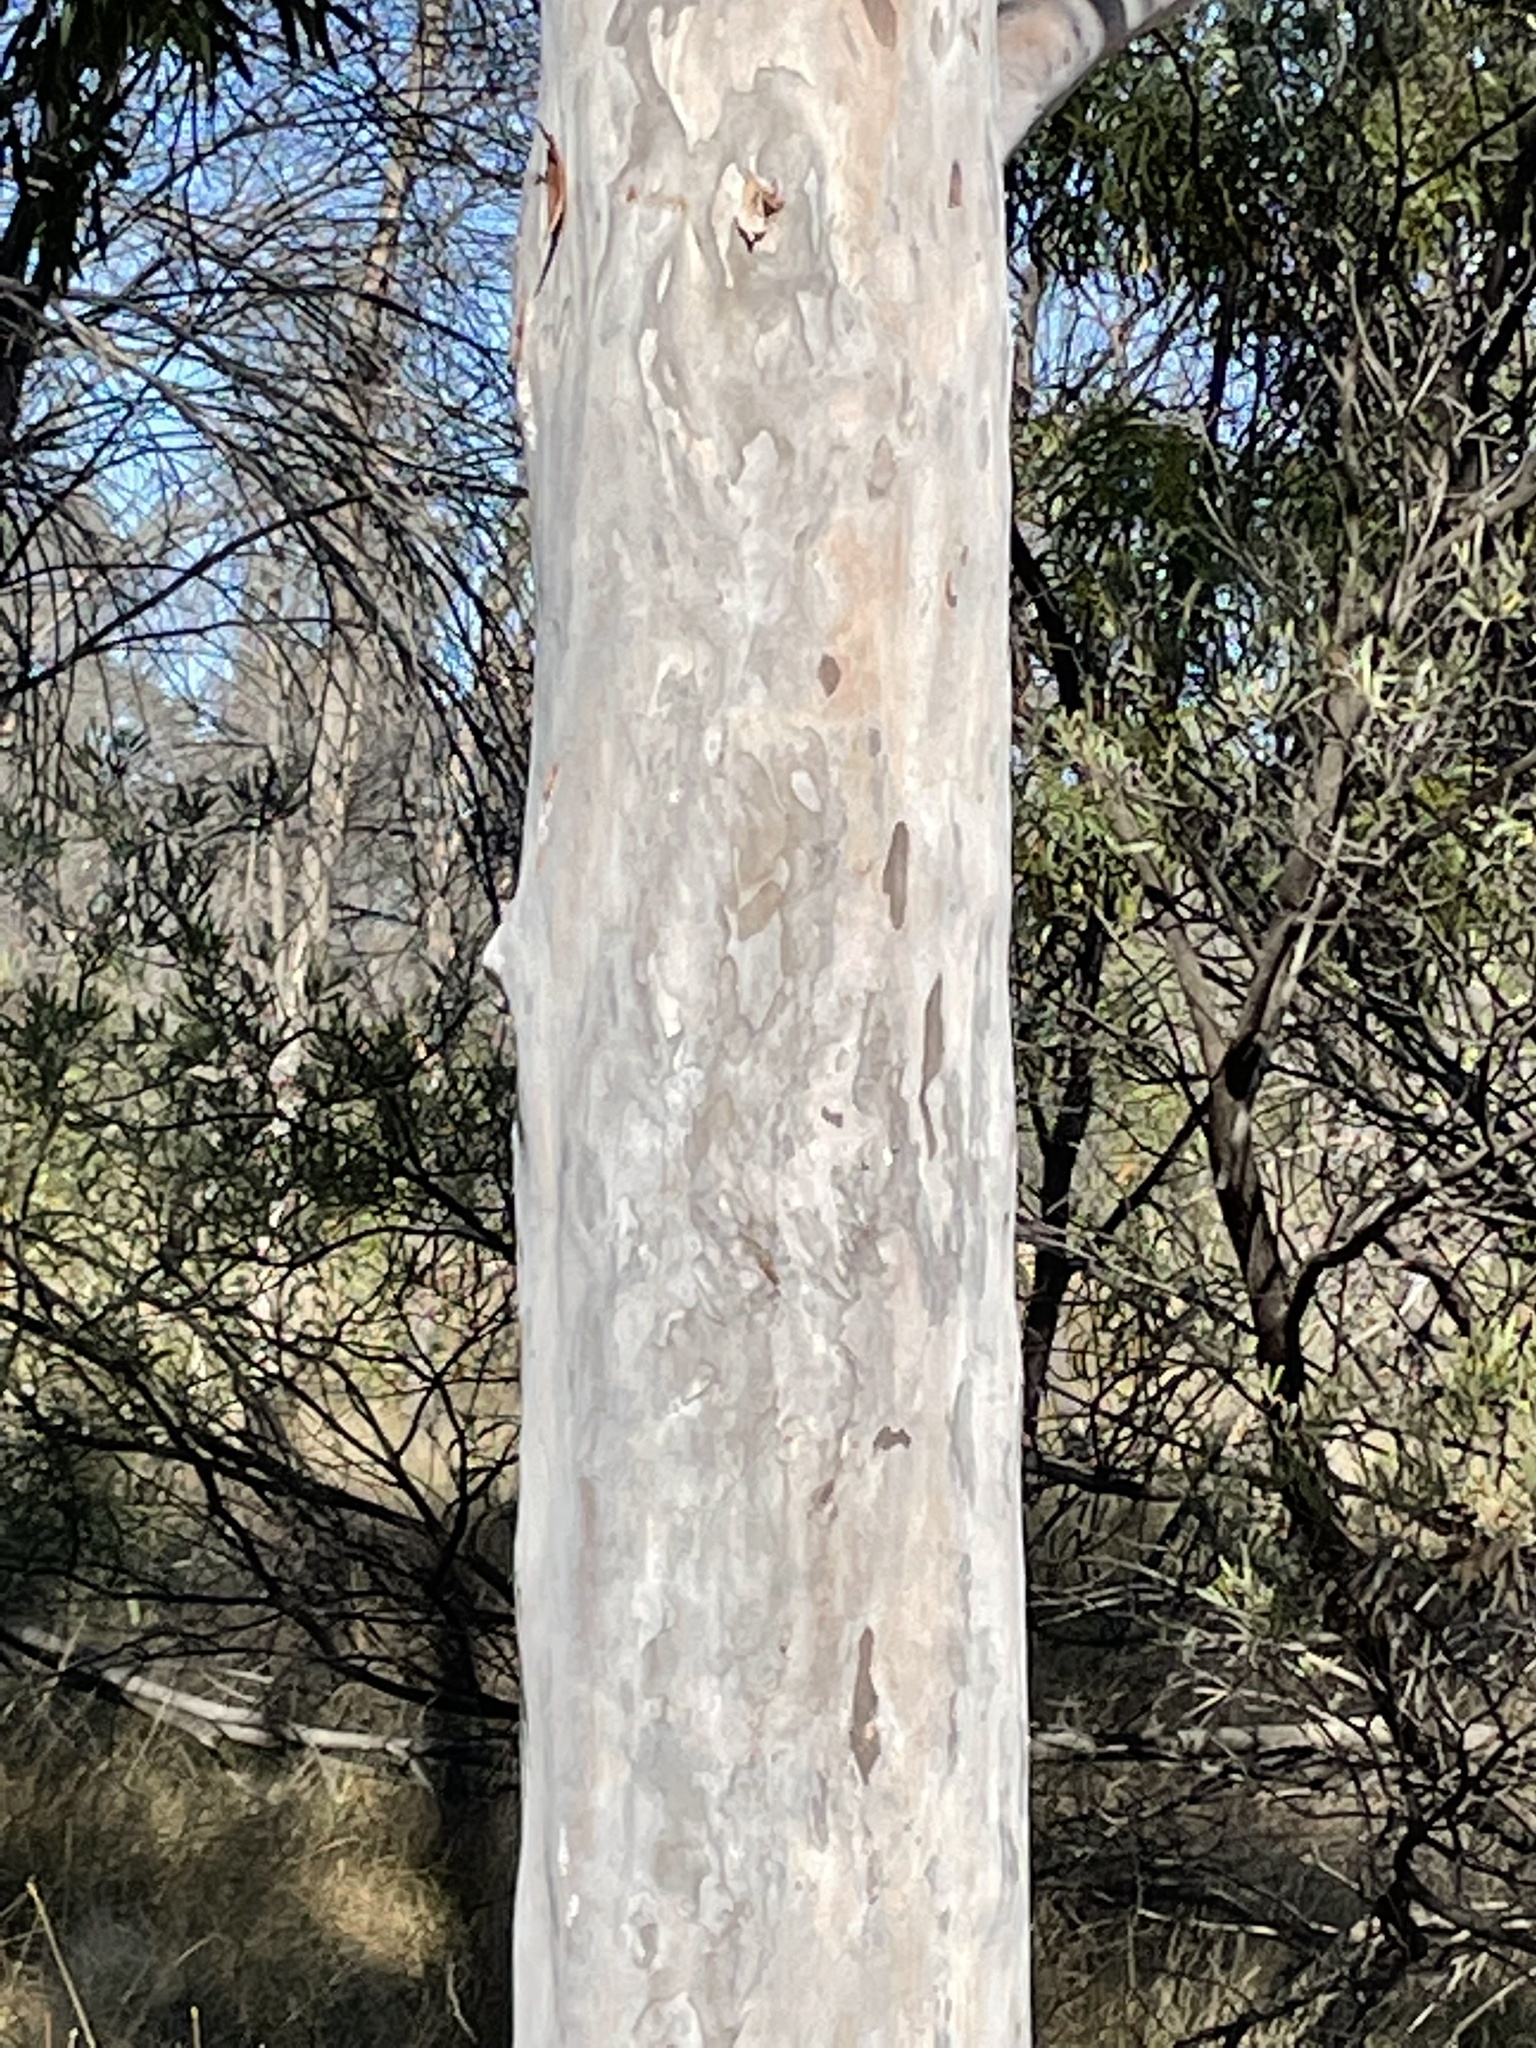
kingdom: Plantae
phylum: Tracheophyta
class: Magnoliopsida
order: Myrtales
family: Myrtaceae
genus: Angophora
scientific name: Angophora leiocarpa
